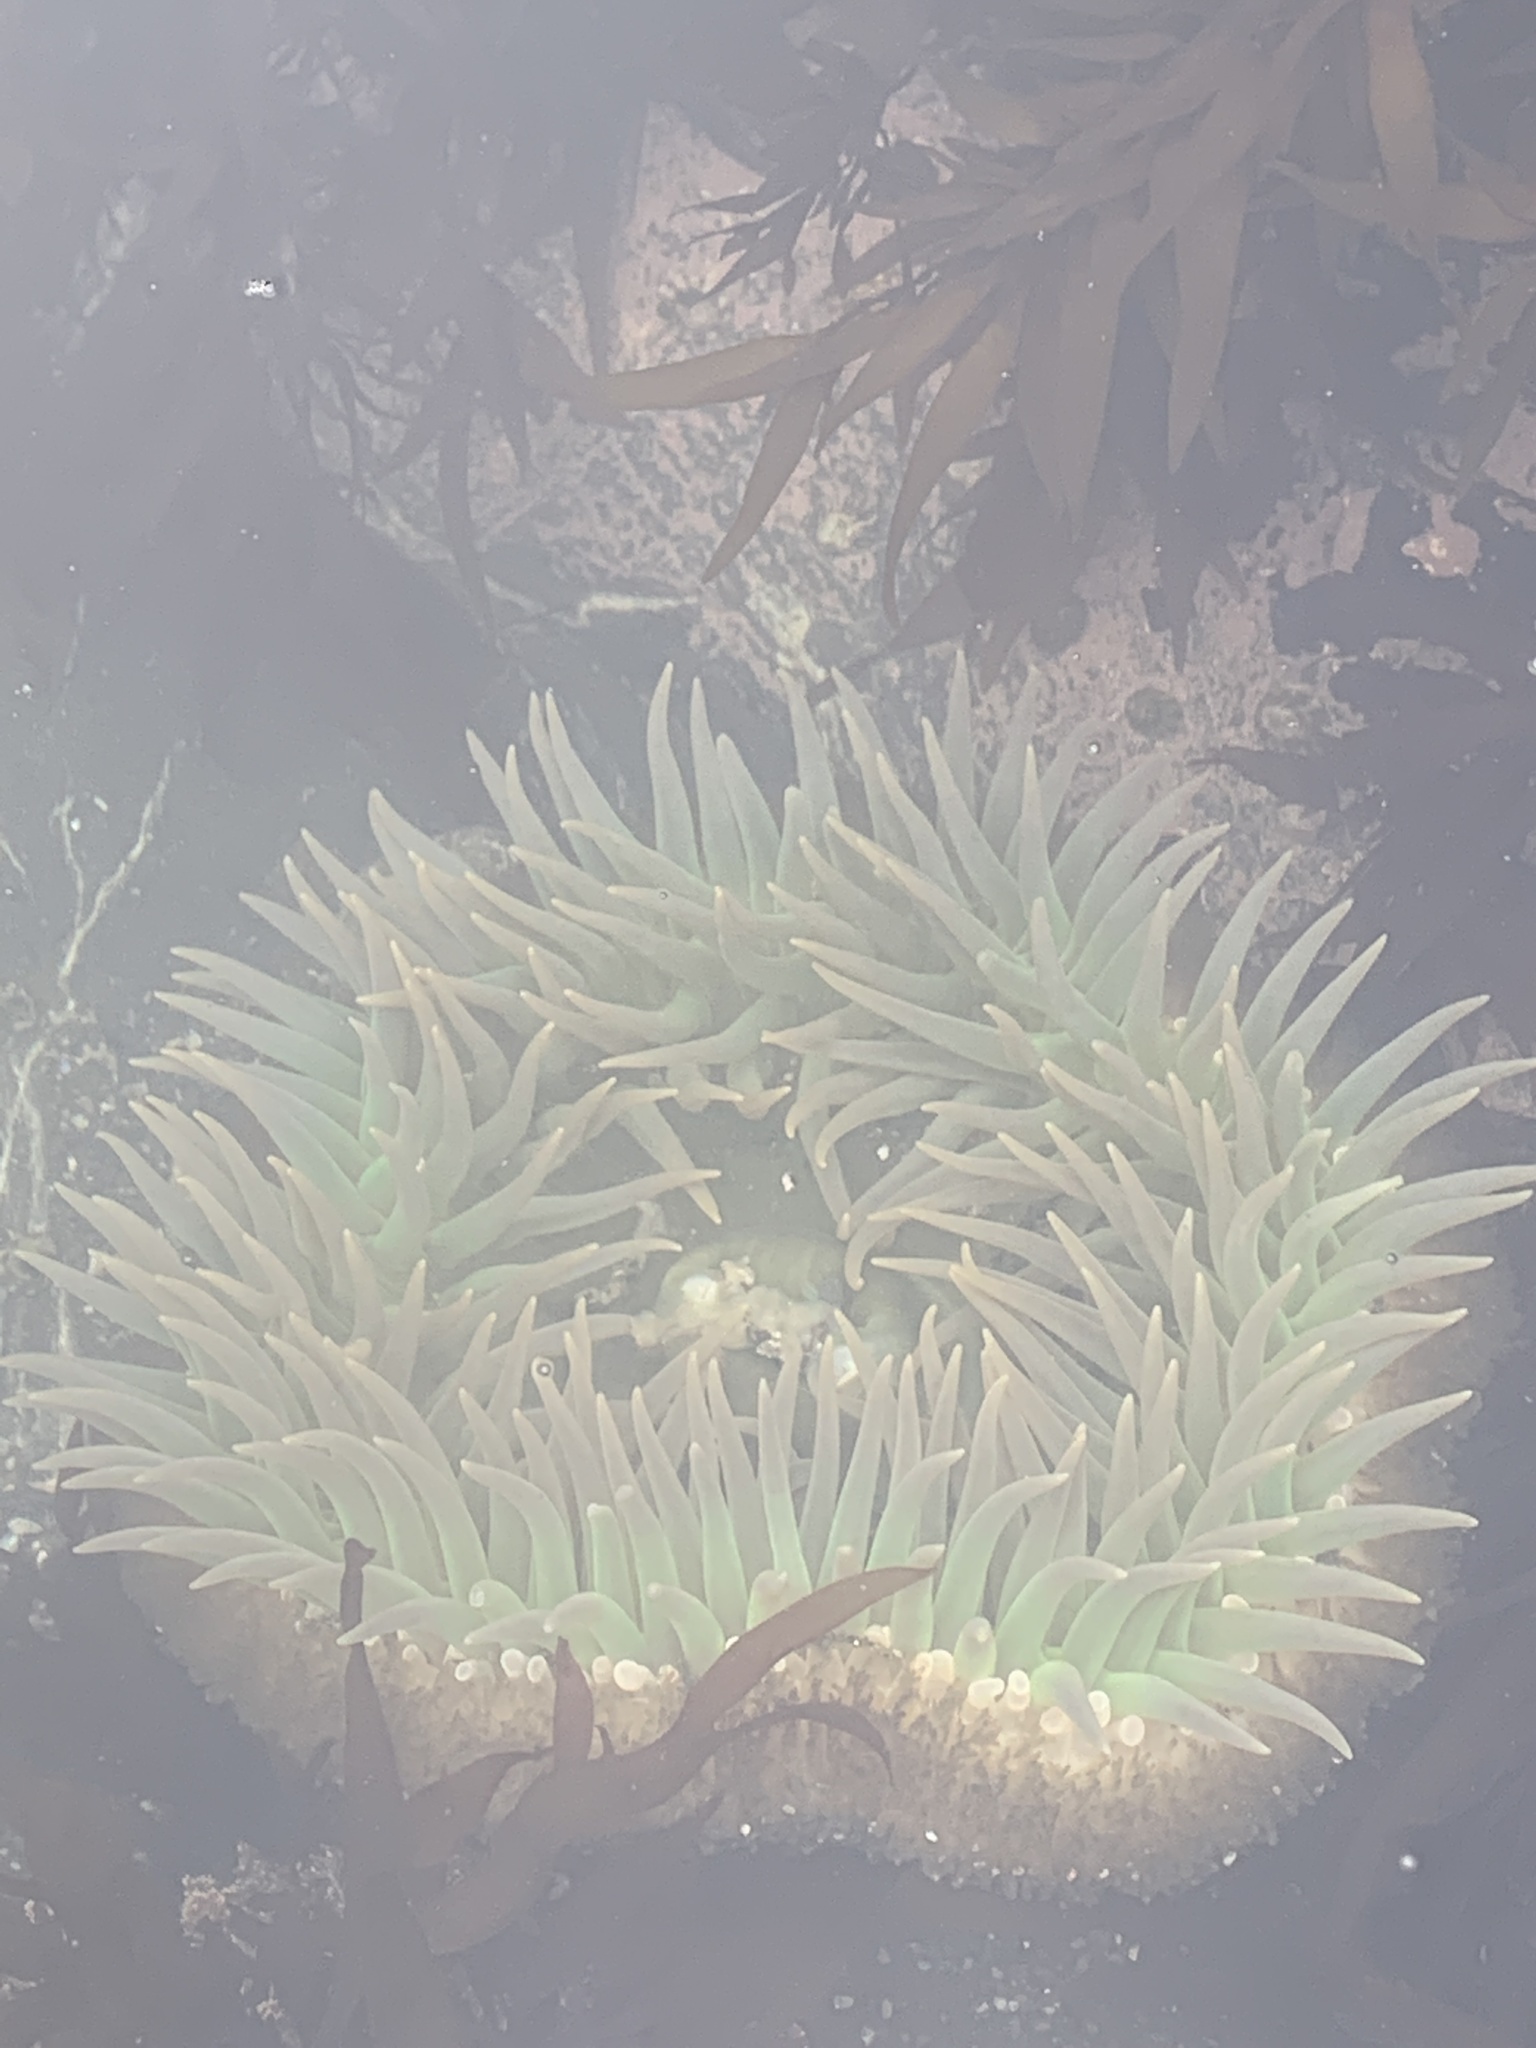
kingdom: Animalia
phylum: Cnidaria
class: Anthozoa
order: Actiniaria
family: Actiniidae
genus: Anthopleura
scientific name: Anthopleura xanthogrammica
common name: Giant green anemone
